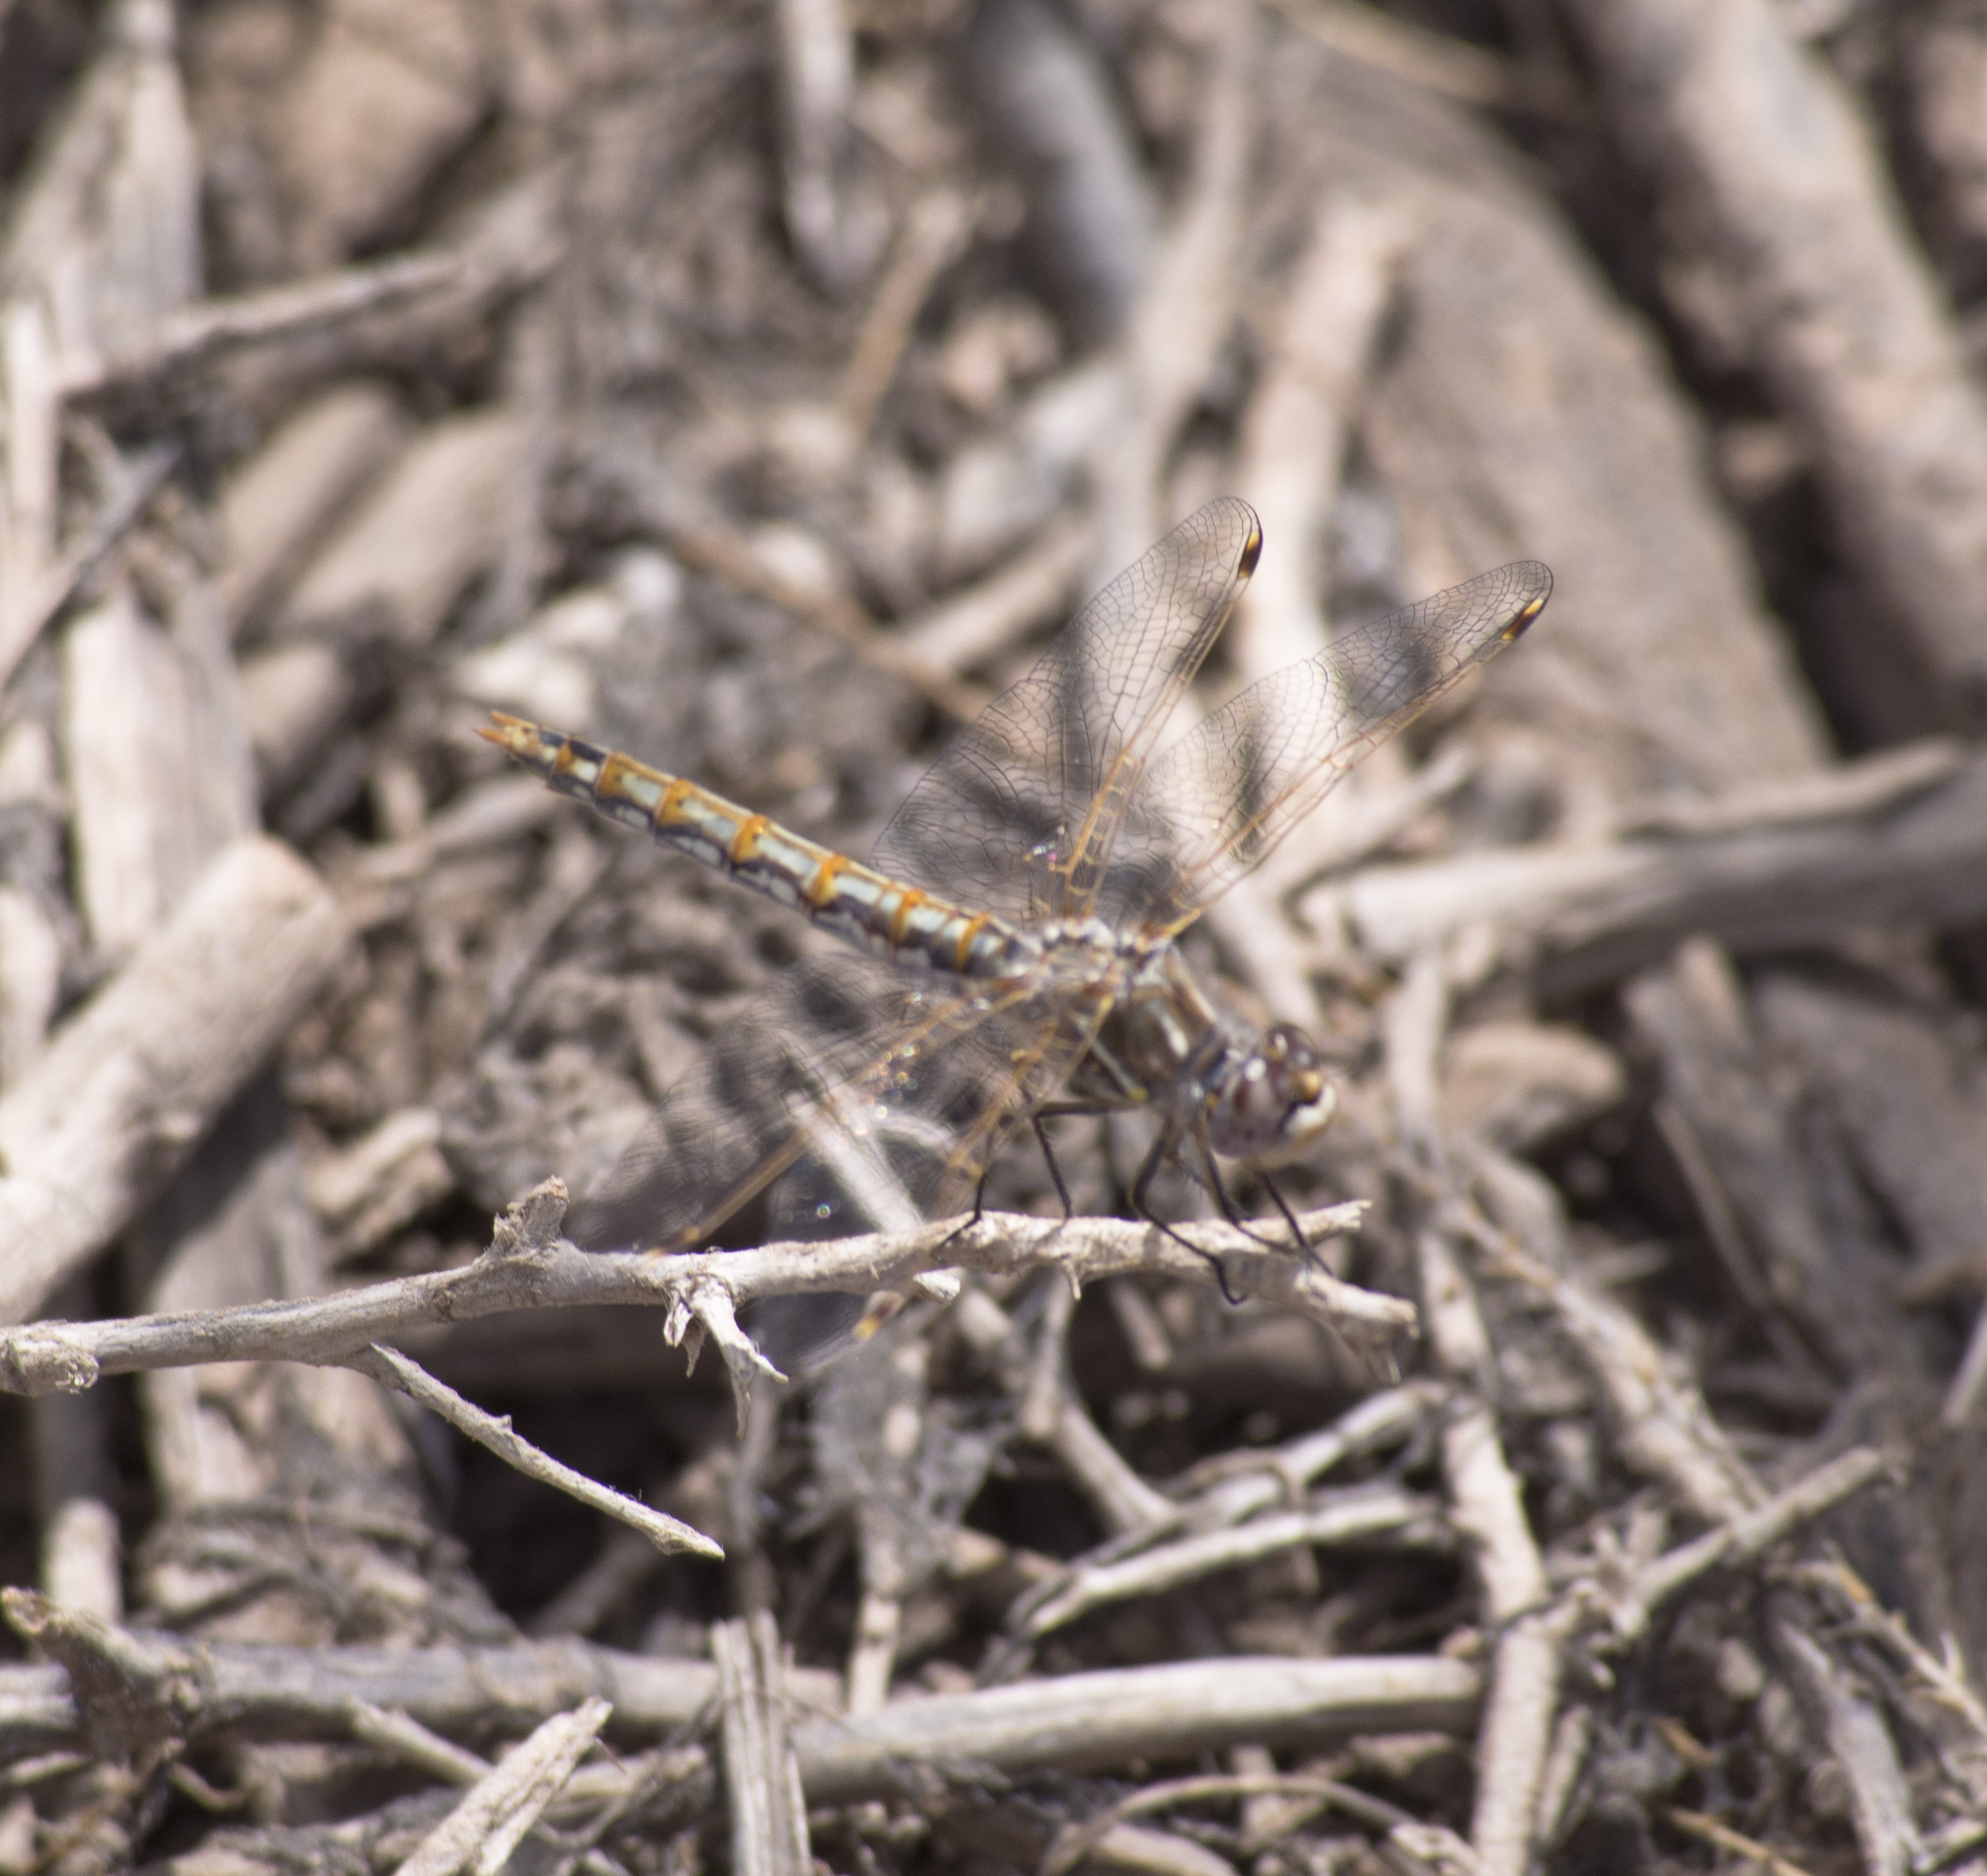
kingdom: Animalia
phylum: Arthropoda
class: Insecta
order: Odonata
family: Libellulidae
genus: Sympetrum
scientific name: Sympetrum corruptum
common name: Variegated meadowhawk
